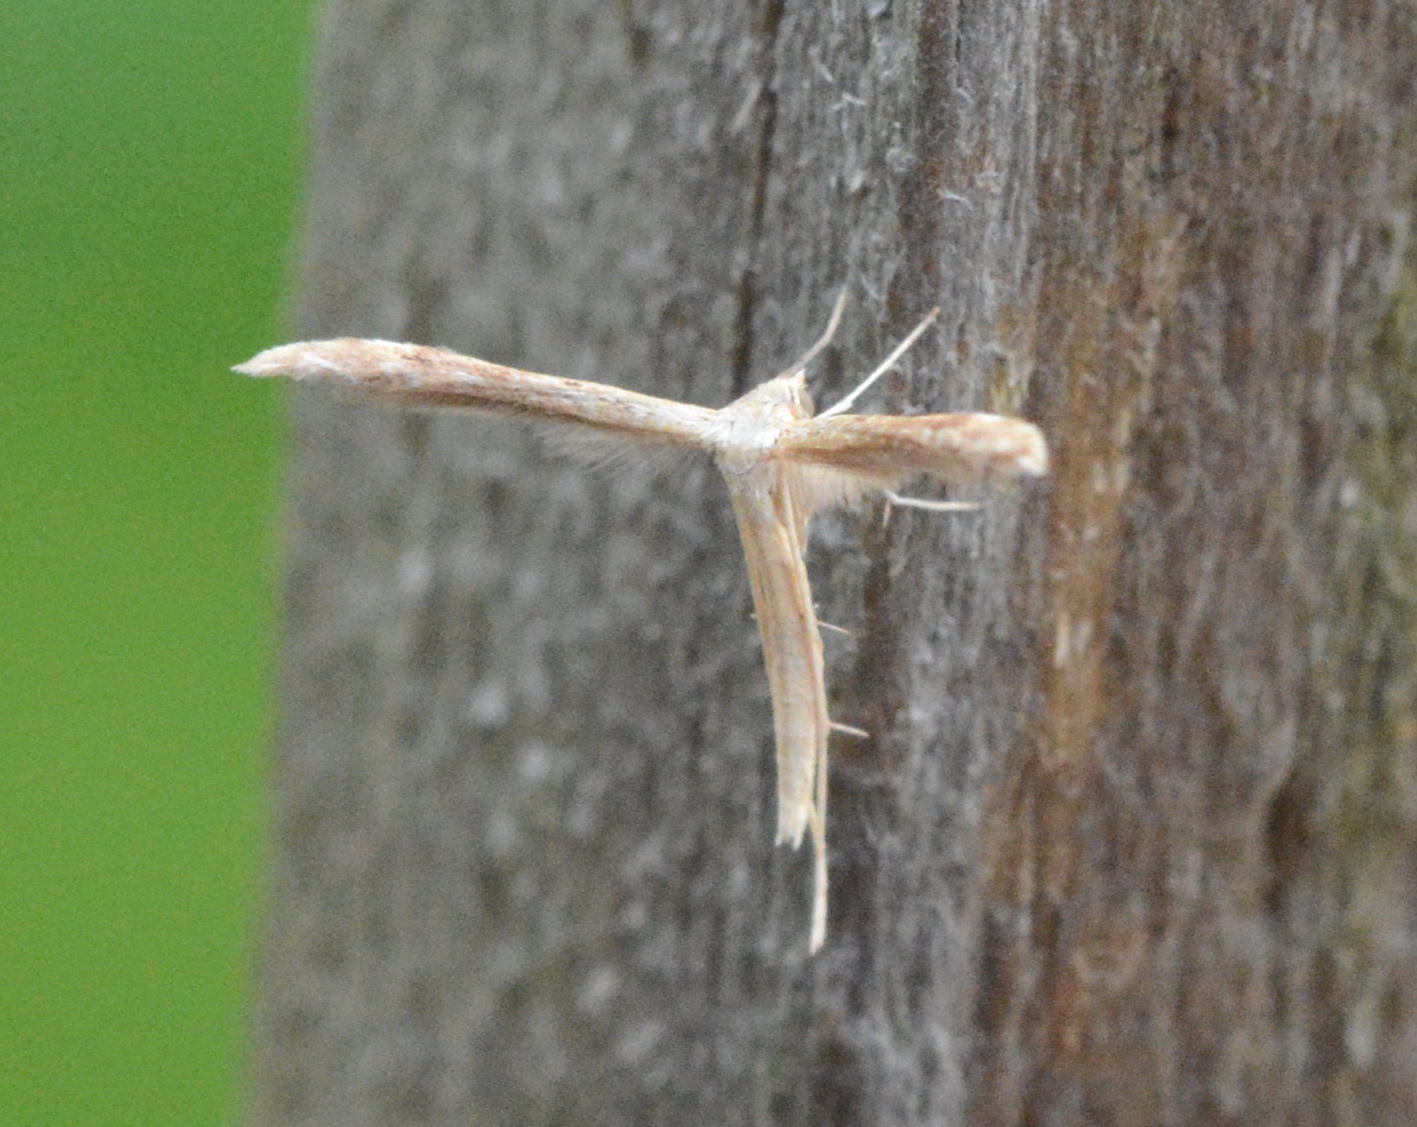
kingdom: Animalia
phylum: Arthropoda
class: Insecta
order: Lepidoptera
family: Pterophoridae
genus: Lioptilodes
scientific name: Lioptilodes albistriolatus
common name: Moth
